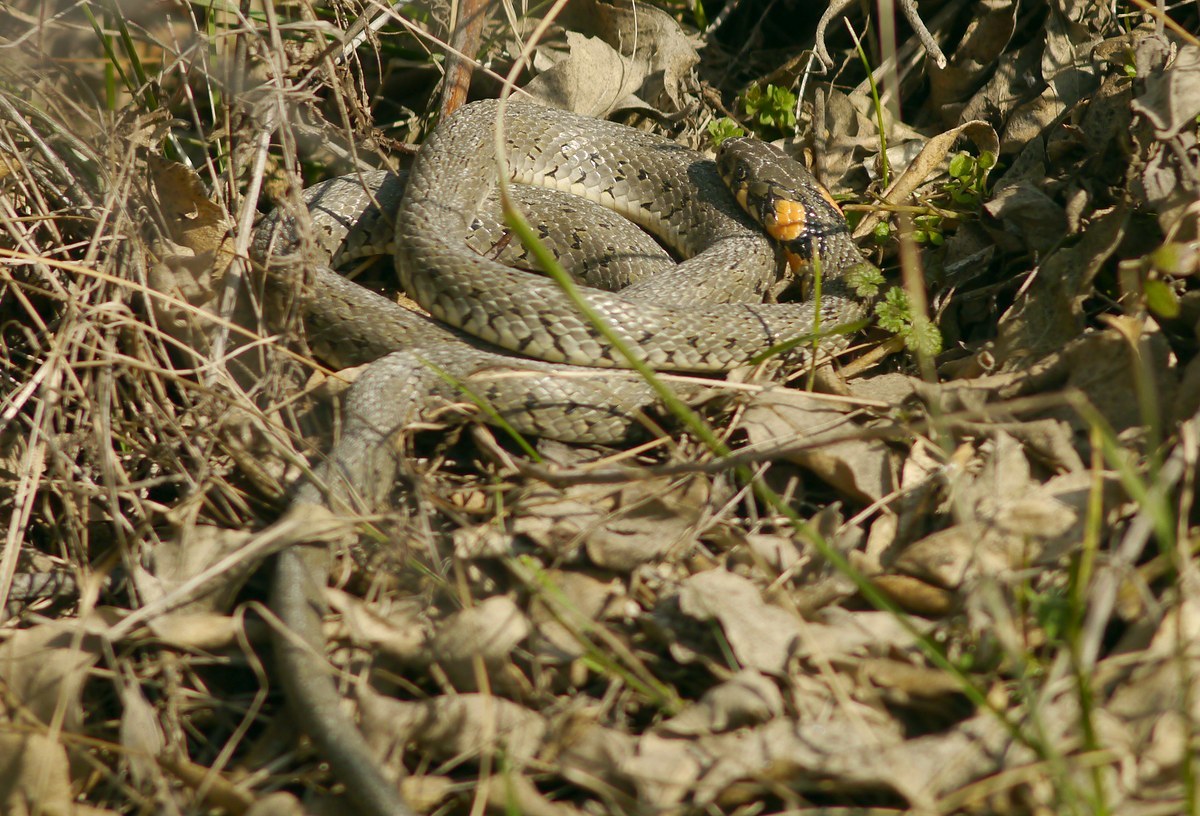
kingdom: Animalia
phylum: Chordata
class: Squamata
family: Colubridae
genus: Natrix
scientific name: Natrix natrix
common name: Grass snake
